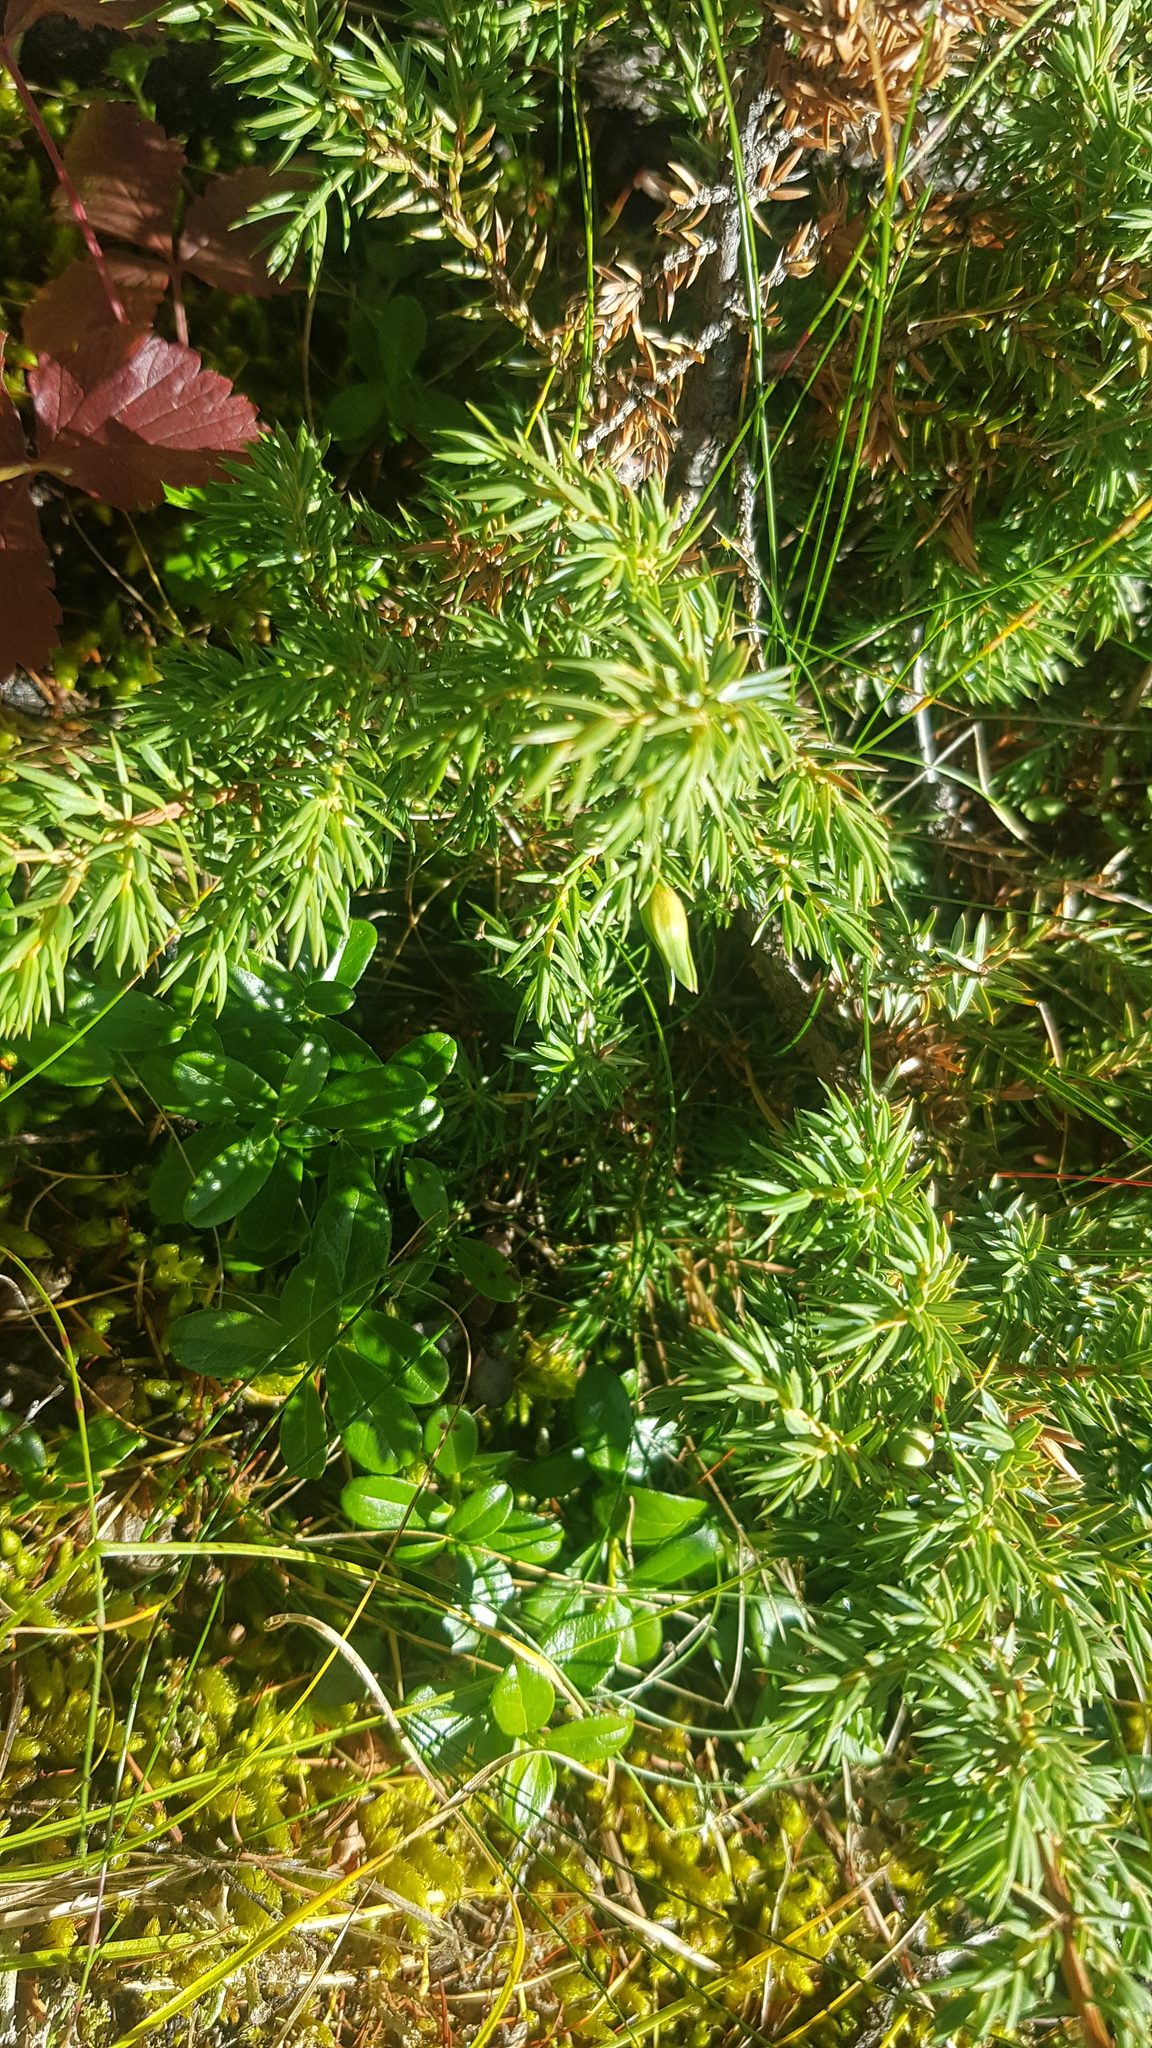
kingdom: Plantae
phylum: Tracheophyta
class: Pinopsida
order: Pinales
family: Cupressaceae
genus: Juniperus
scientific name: Juniperus communis
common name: Common juniper
